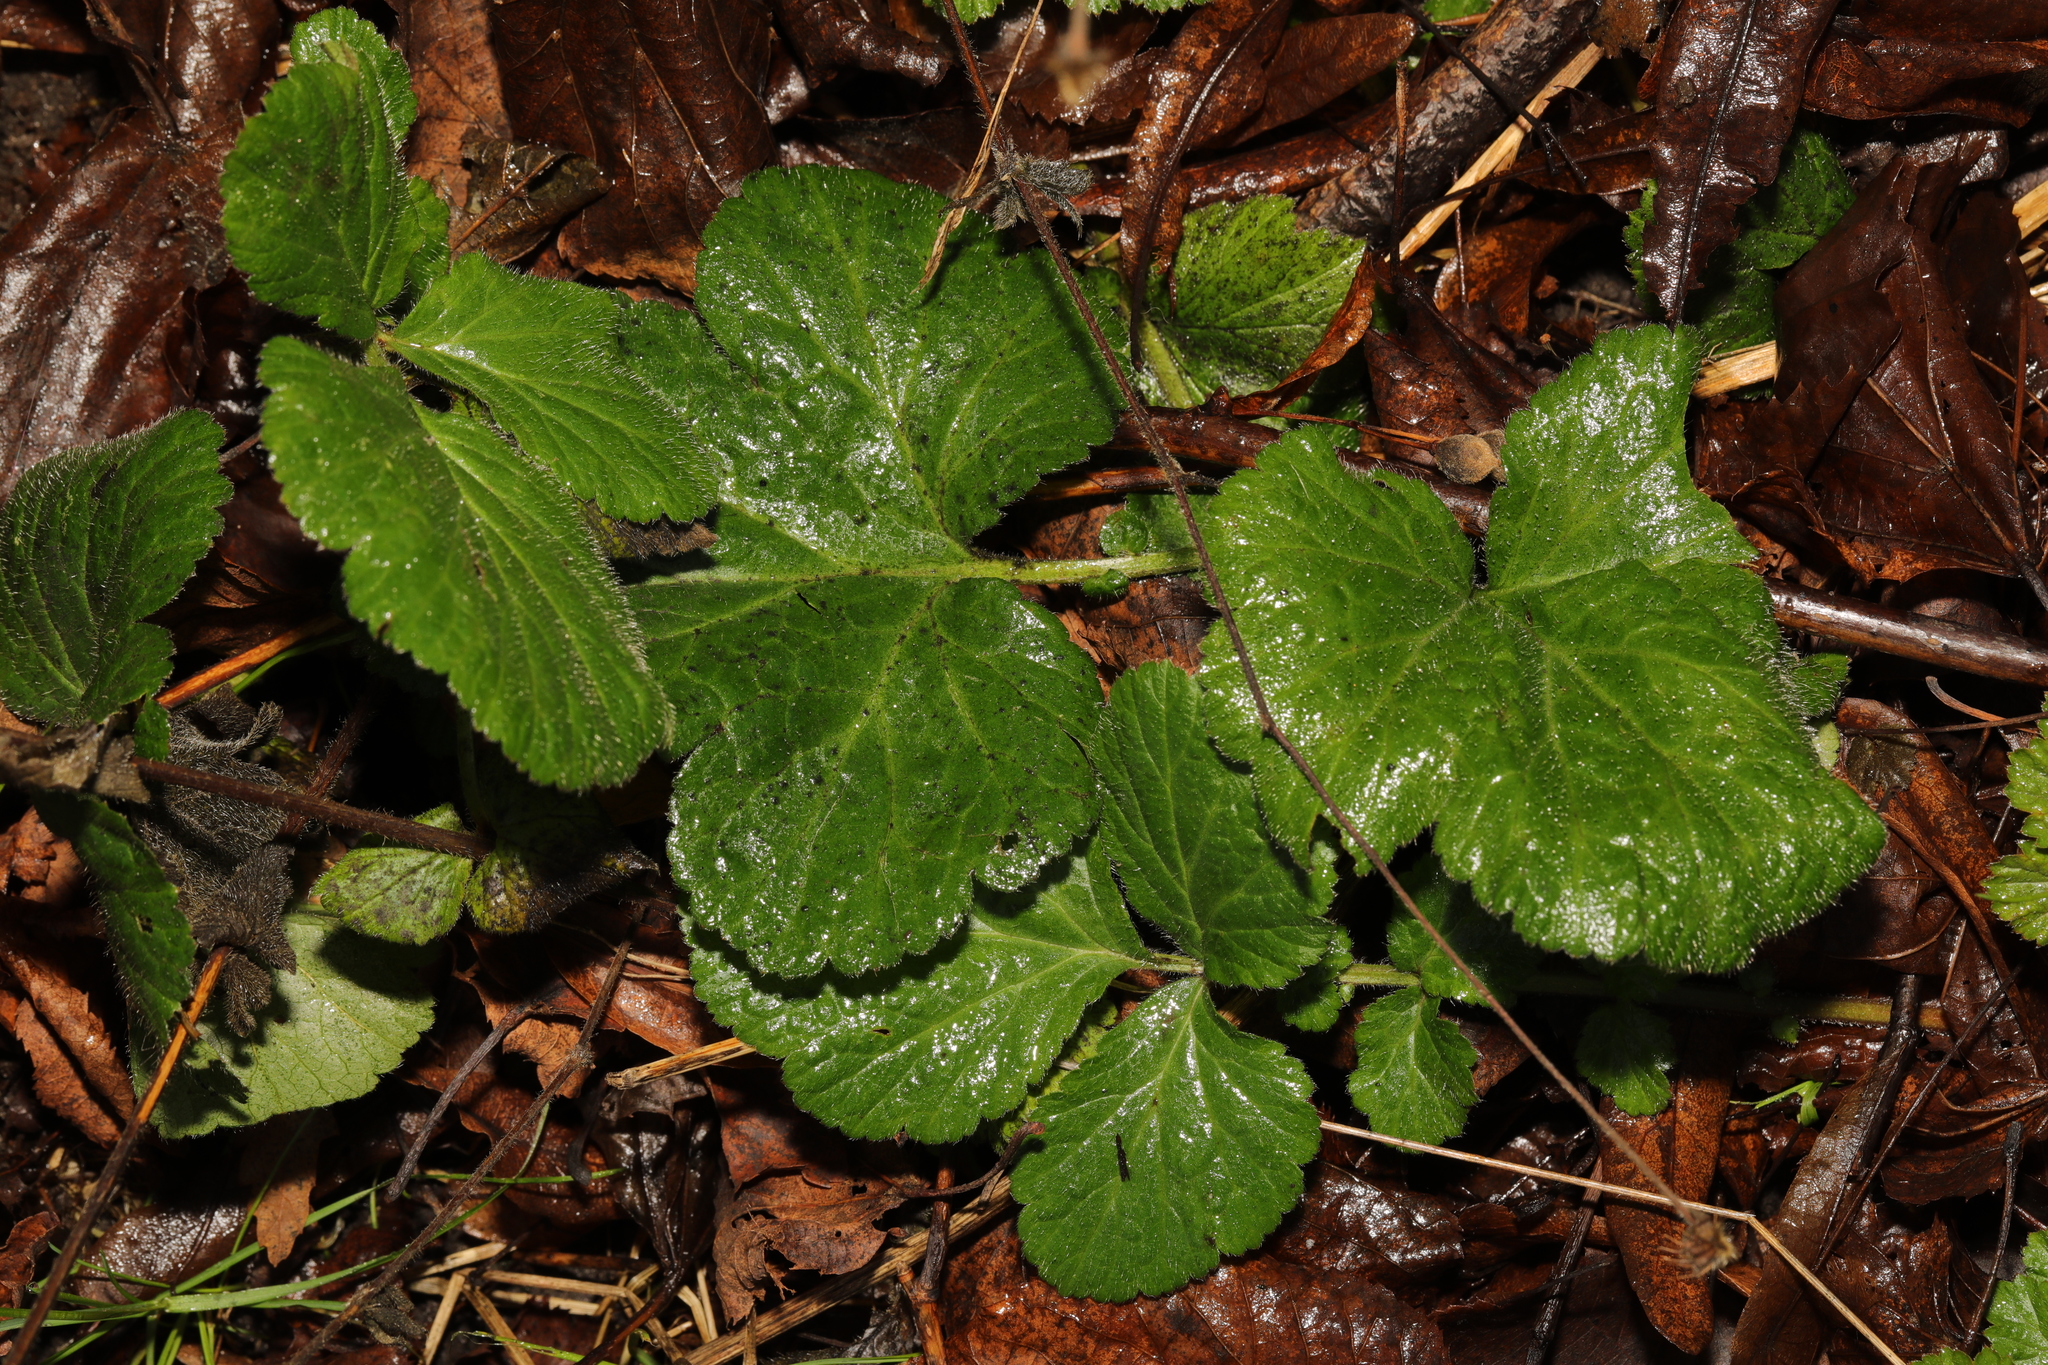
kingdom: Plantae
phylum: Tracheophyta
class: Magnoliopsida
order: Rosales
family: Rosaceae
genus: Geum
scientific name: Geum urbanum
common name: Wood avens
